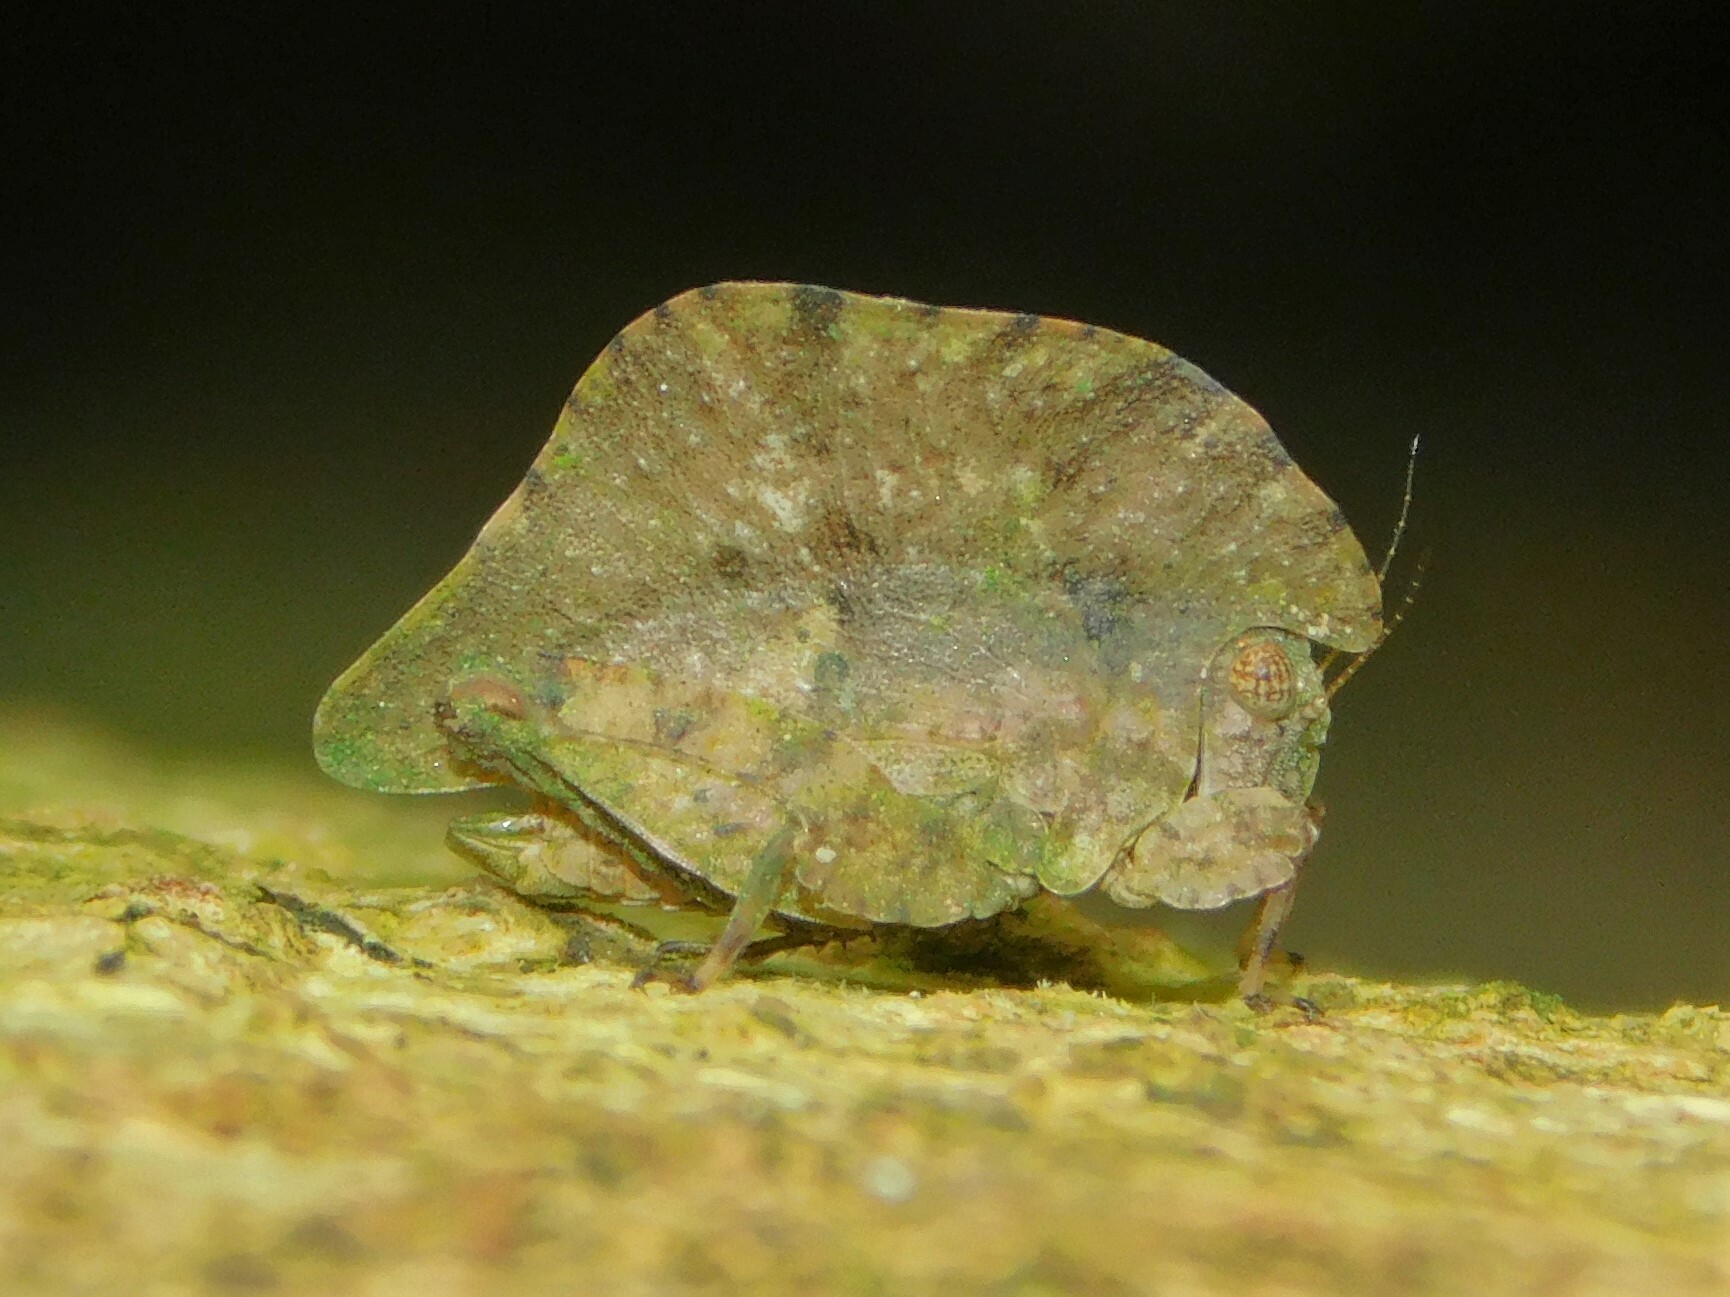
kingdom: Animalia
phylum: Arthropoda
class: Insecta
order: Orthoptera
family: Tetrigidae
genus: Trypophyllum
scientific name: Trypophyllum glabrifrons
